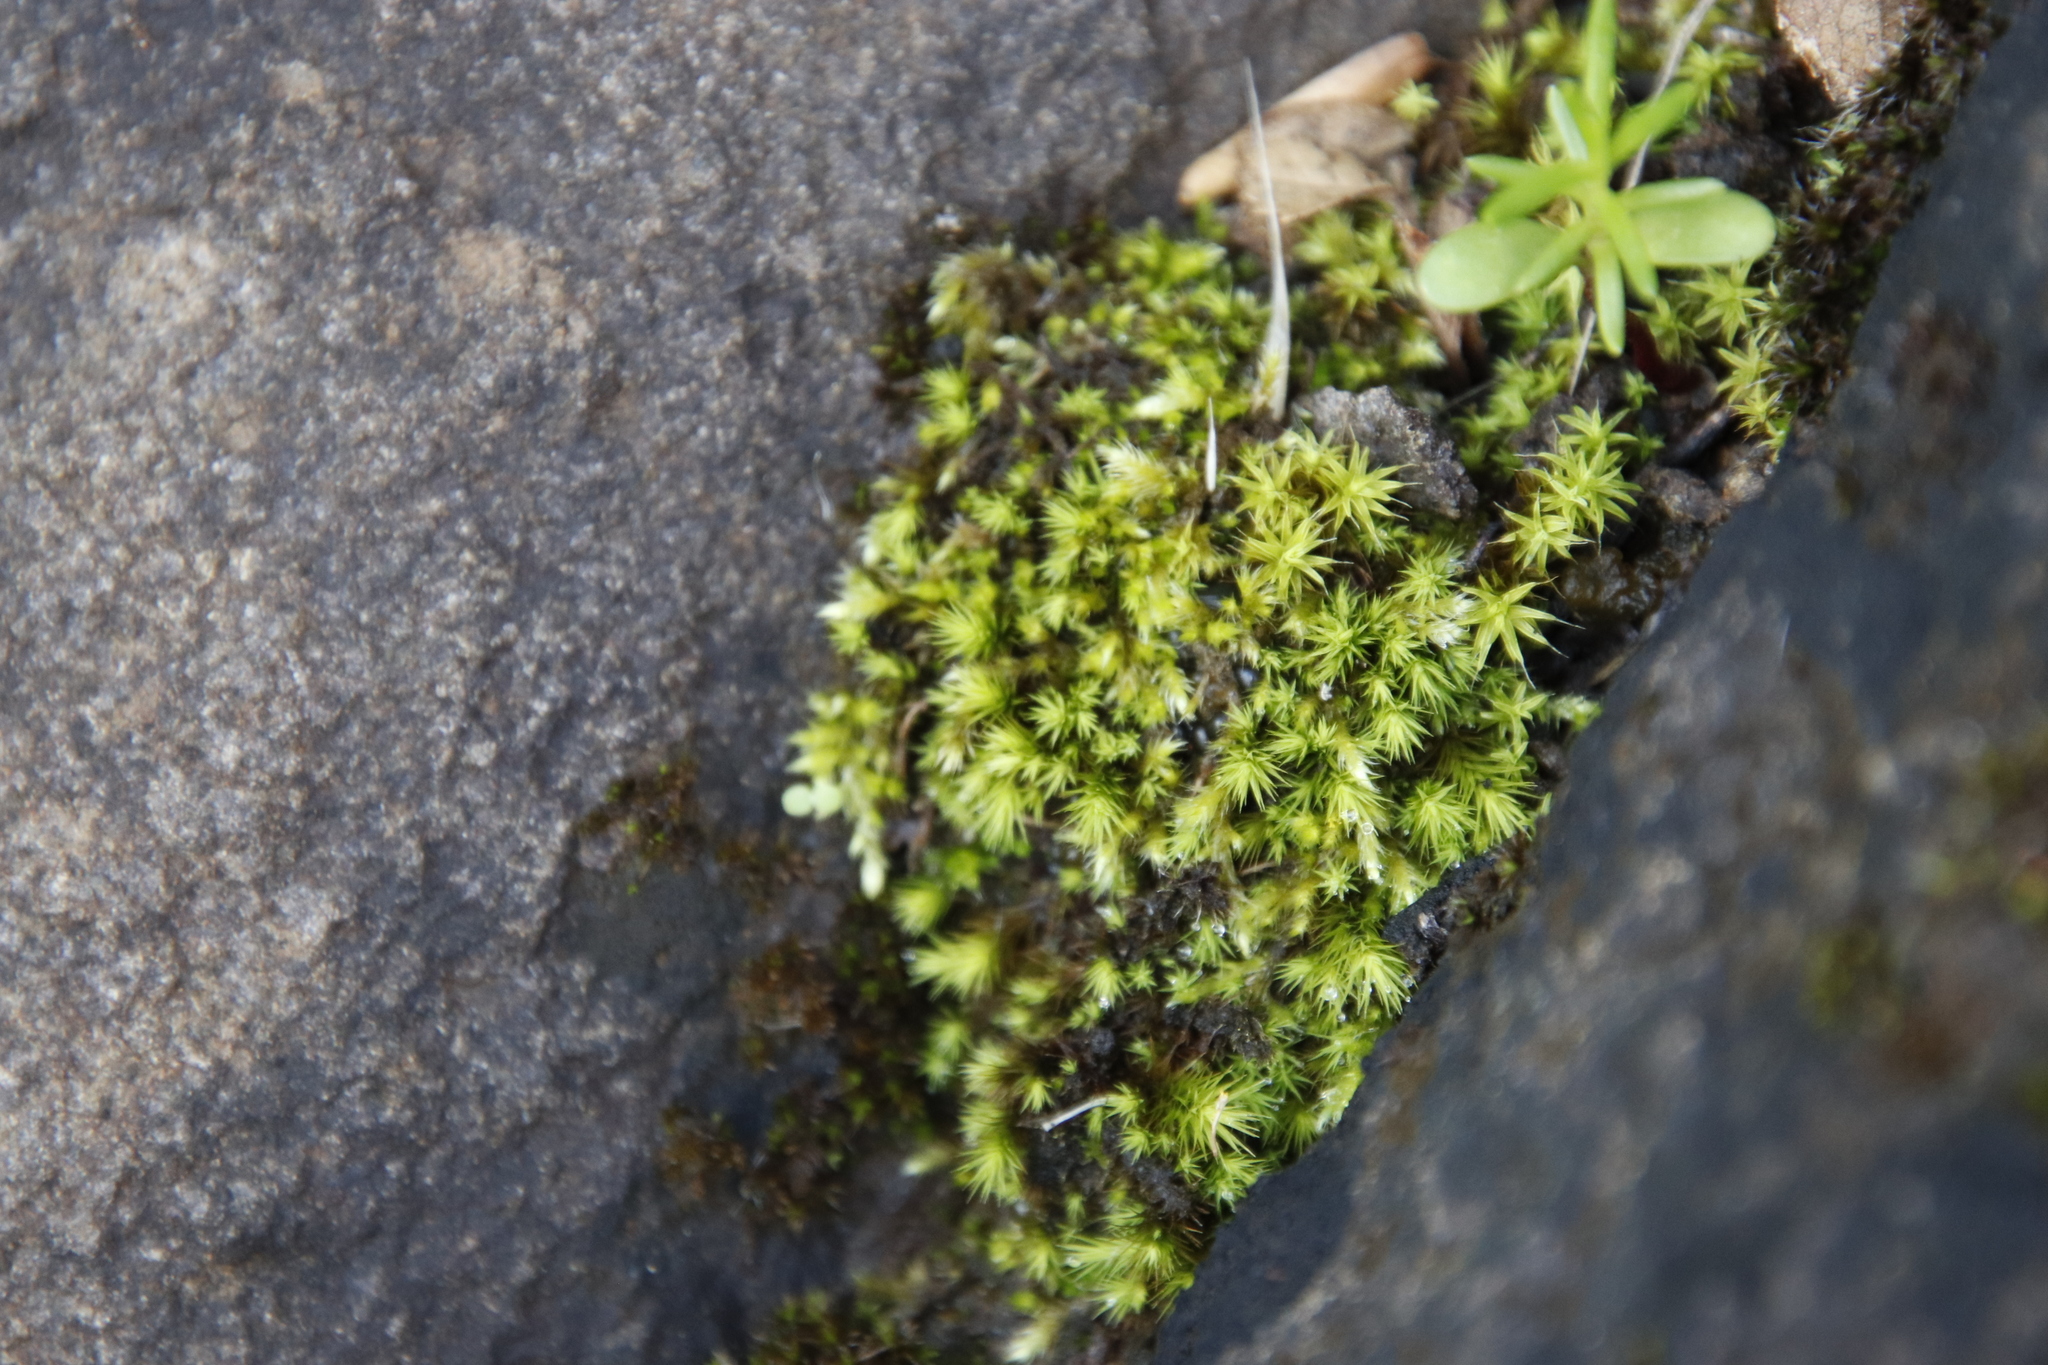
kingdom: Plantae
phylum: Bryophyta
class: Bryopsida
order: Bartramiales
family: Bartramiaceae
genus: Anacolia
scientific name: Anacolia breutelii
